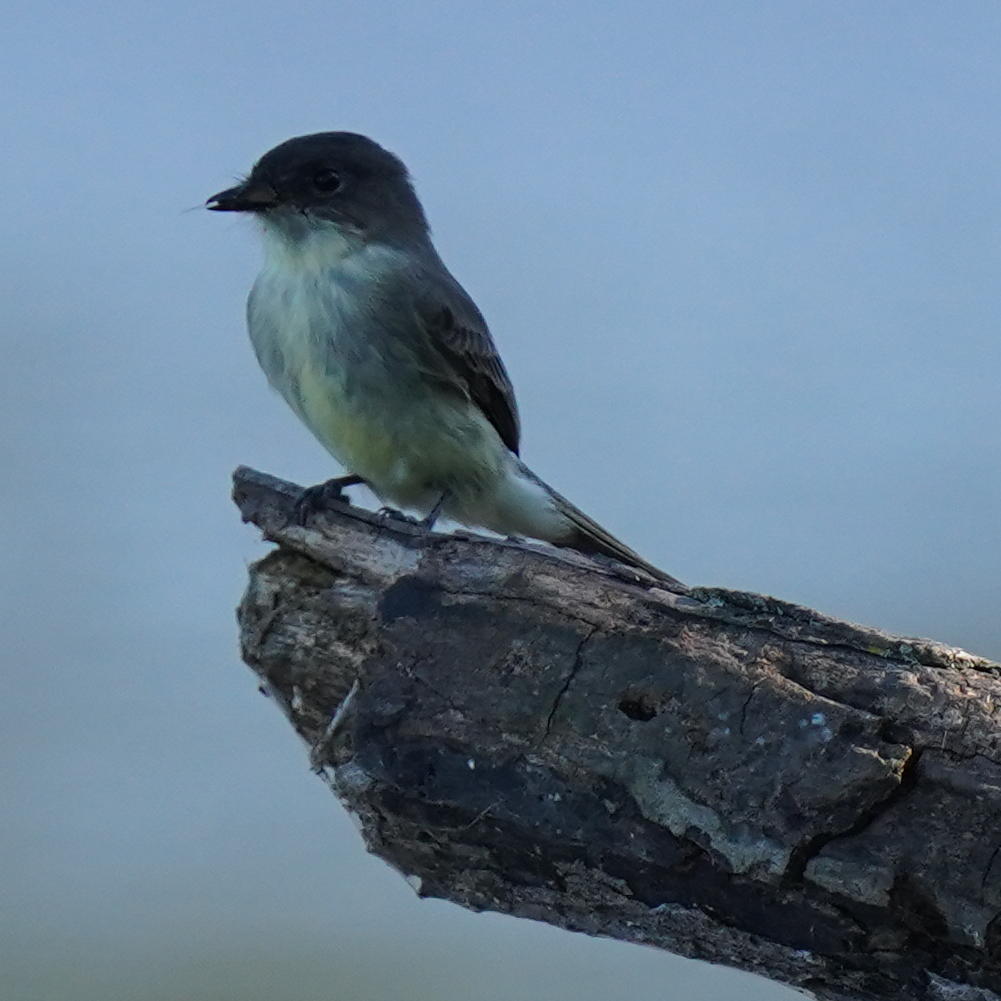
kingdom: Animalia
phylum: Chordata
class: Aves
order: Passeriformes
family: Tyrannidae
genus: Sayornis
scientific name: Sayornis phoebe
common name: Eastern phoebe
